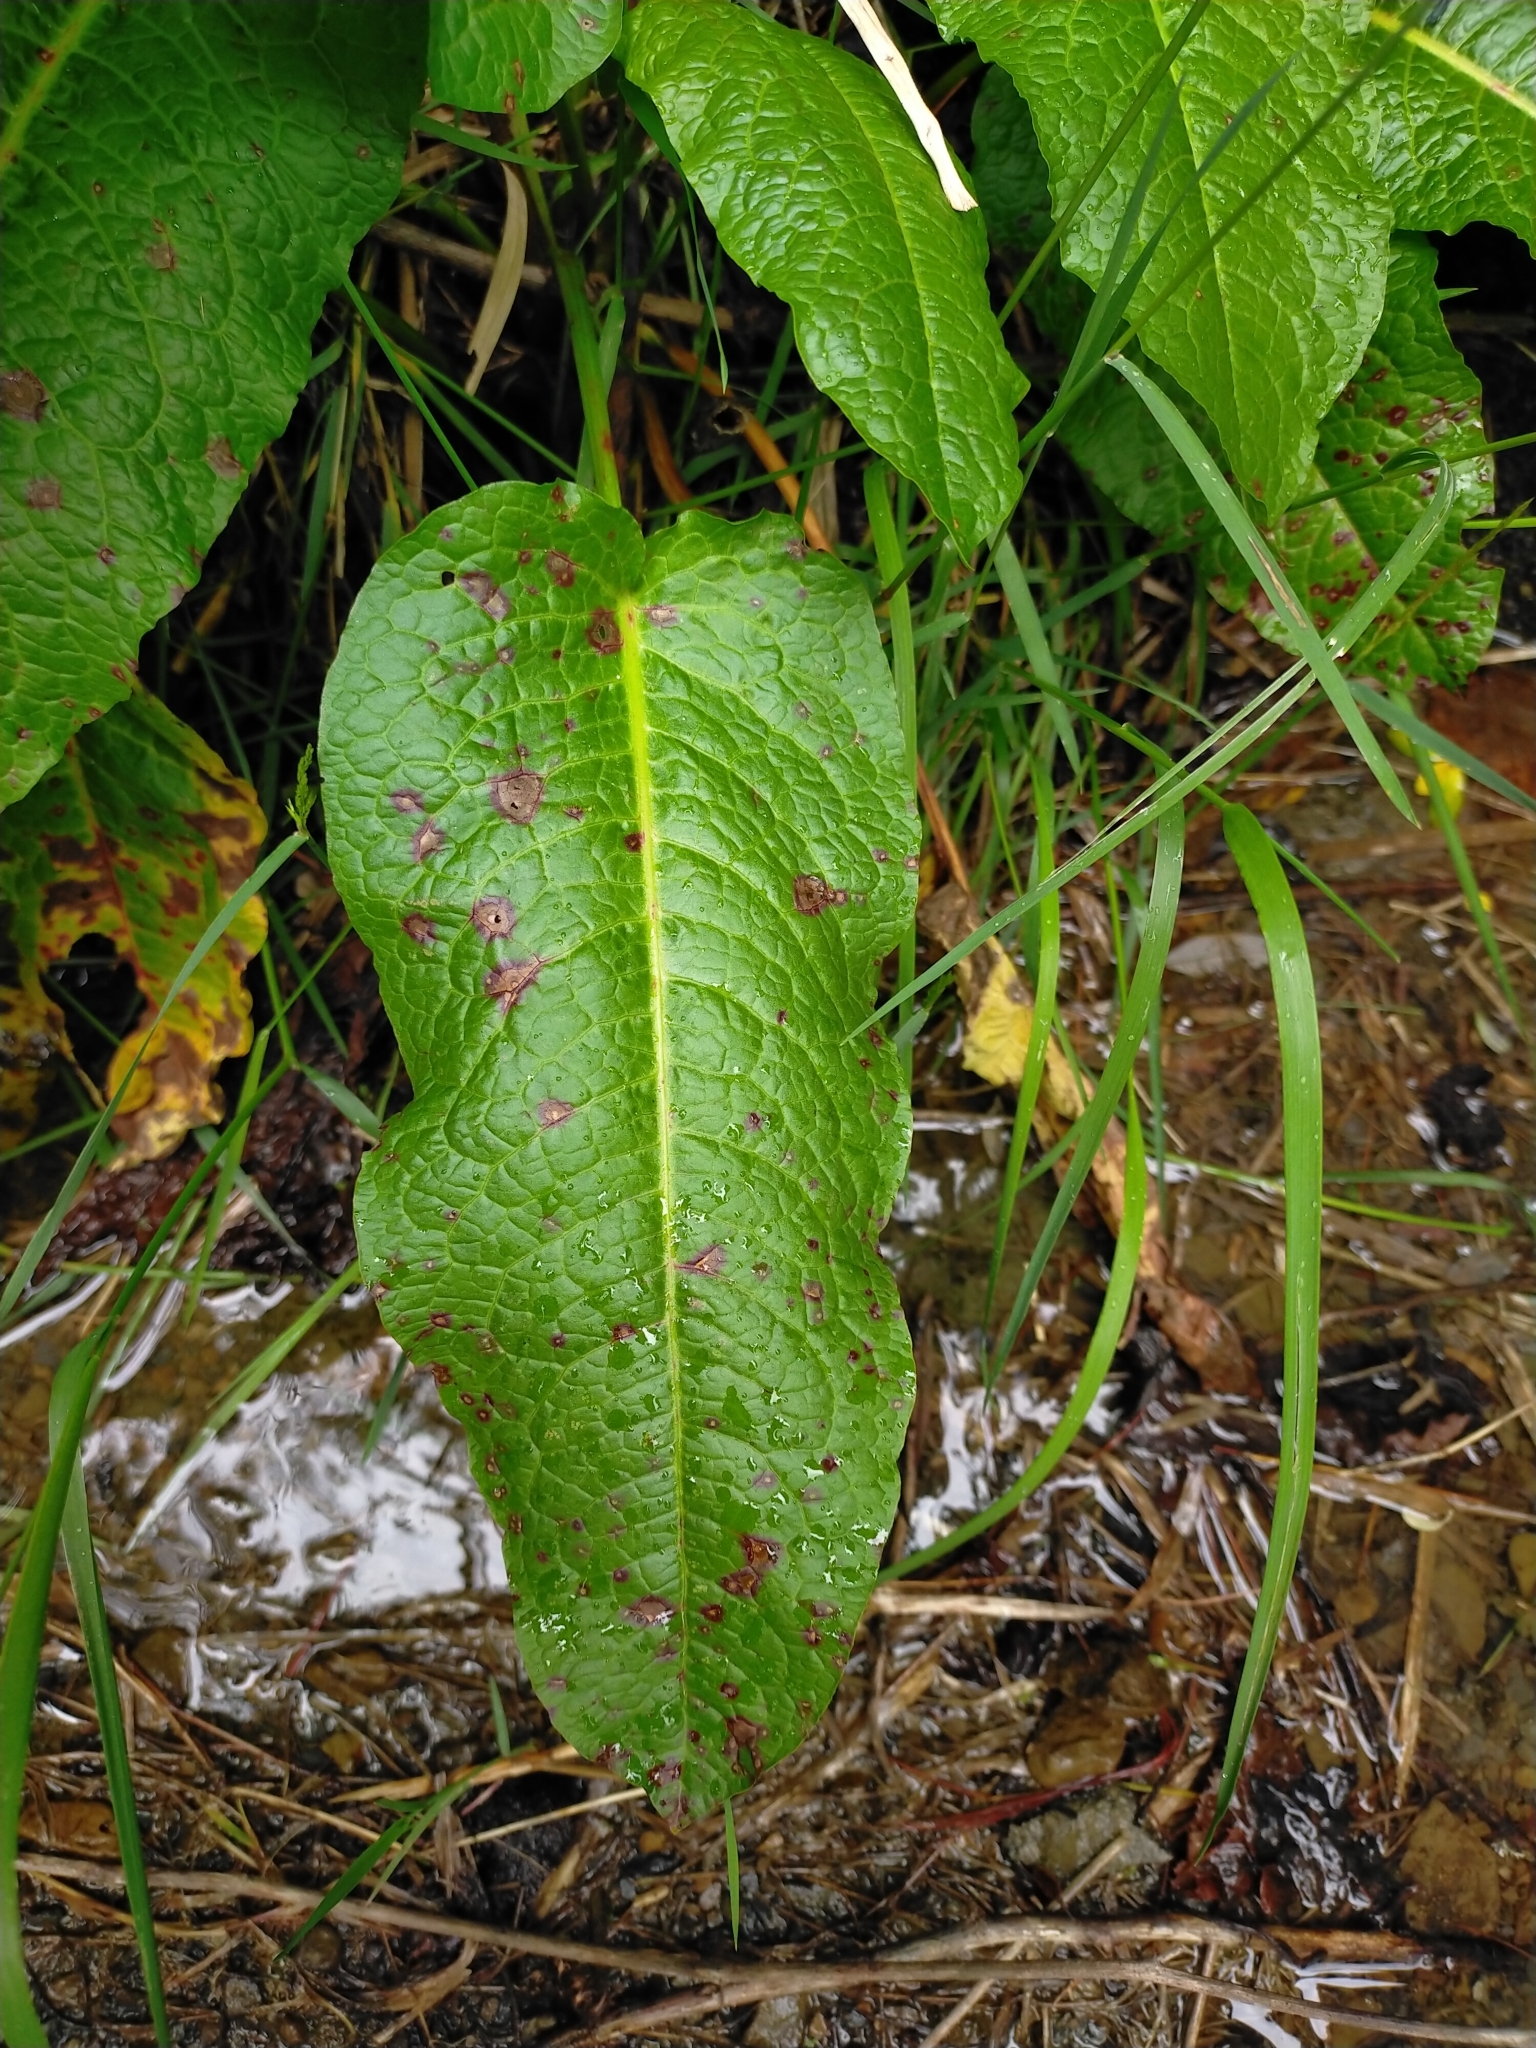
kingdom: Plantae
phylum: Tracheophyta
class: Magnoliopsida
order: Caryophyllales
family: Polygonaceae
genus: Rumex
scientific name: Rumex japonicus
